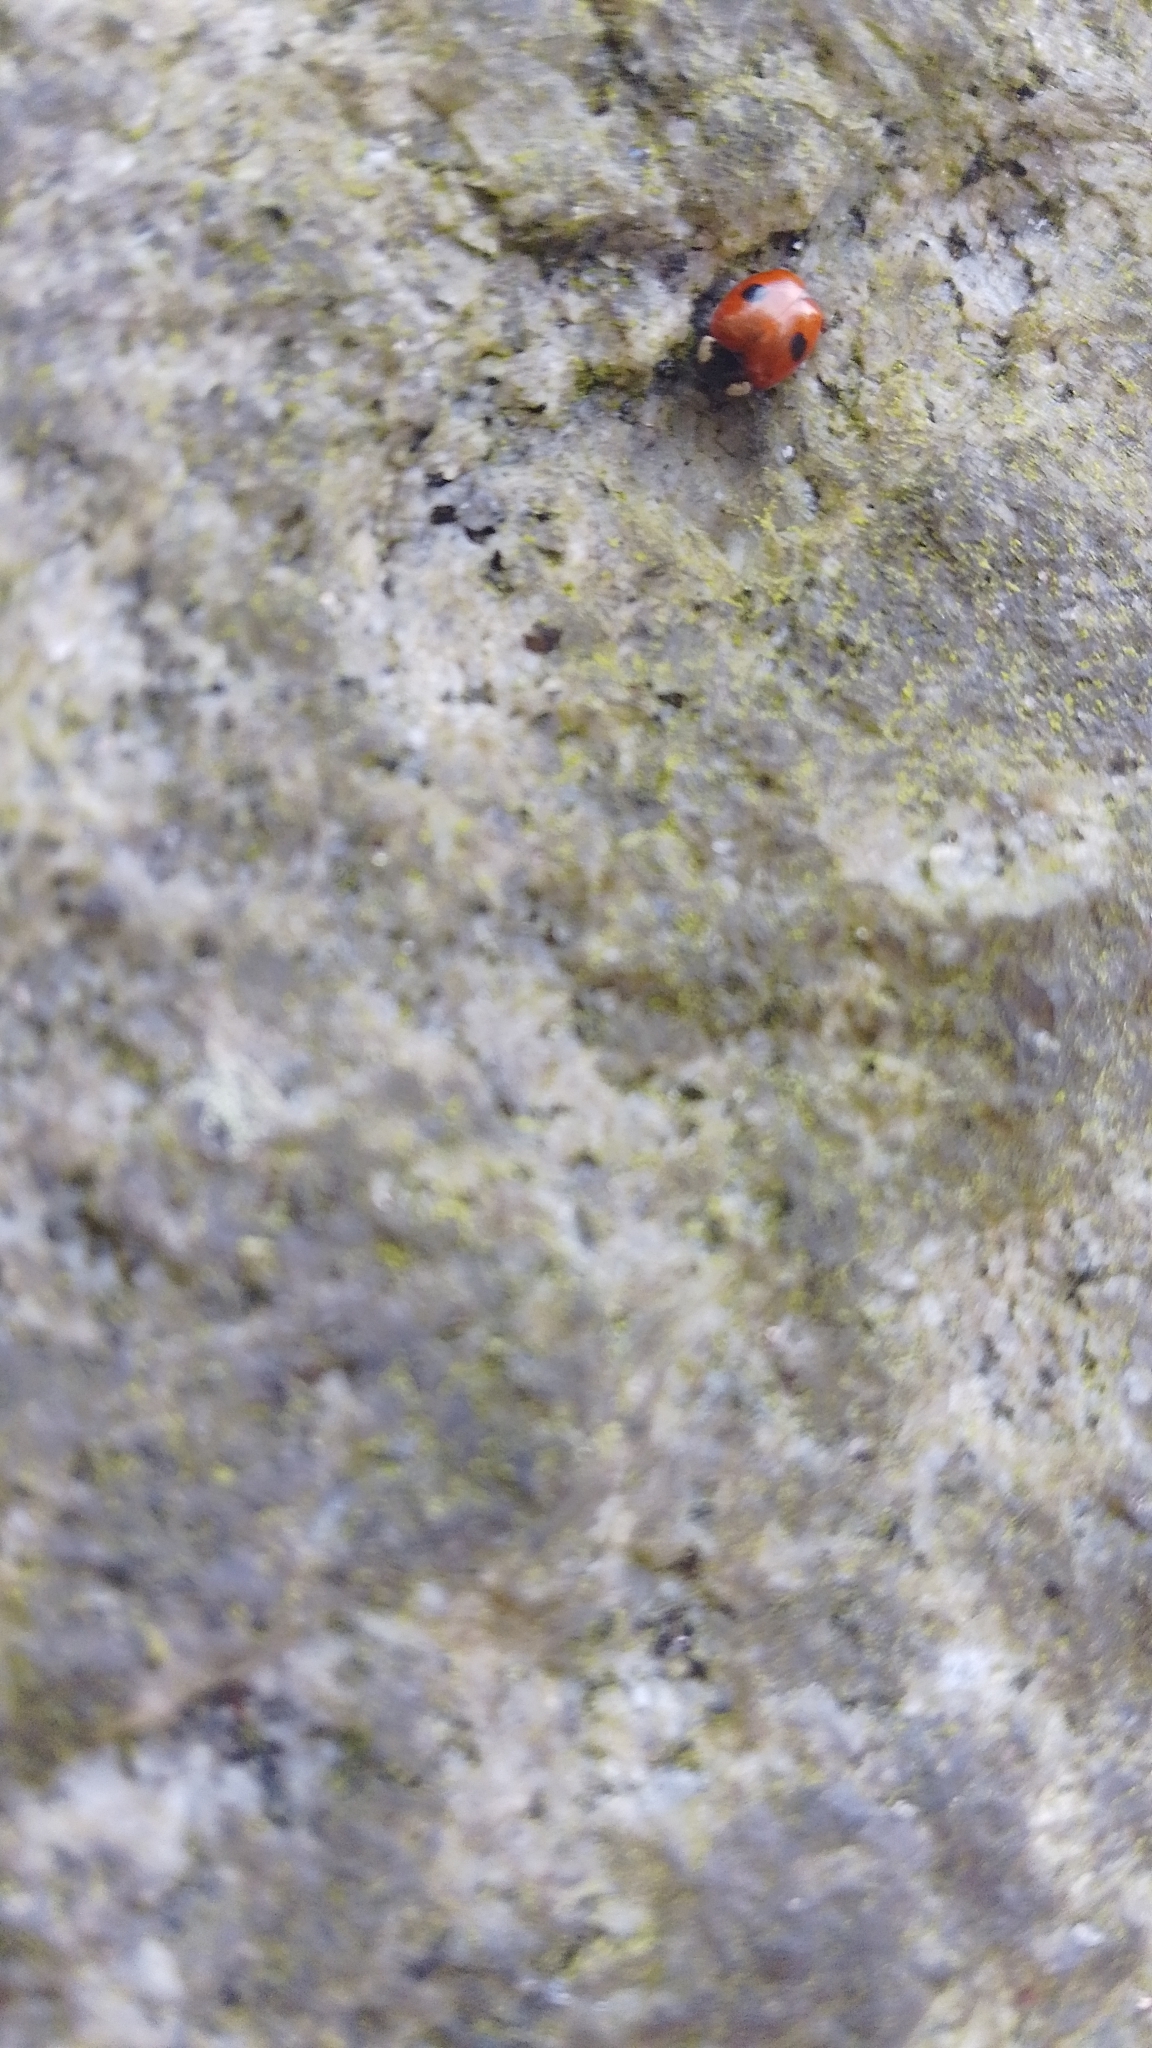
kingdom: Animalia
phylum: Arthropoda
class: Insecta
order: Coleoptera
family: Coccinellidae
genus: Adalia
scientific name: Adalia bipunctata
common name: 2-spot ladybird
